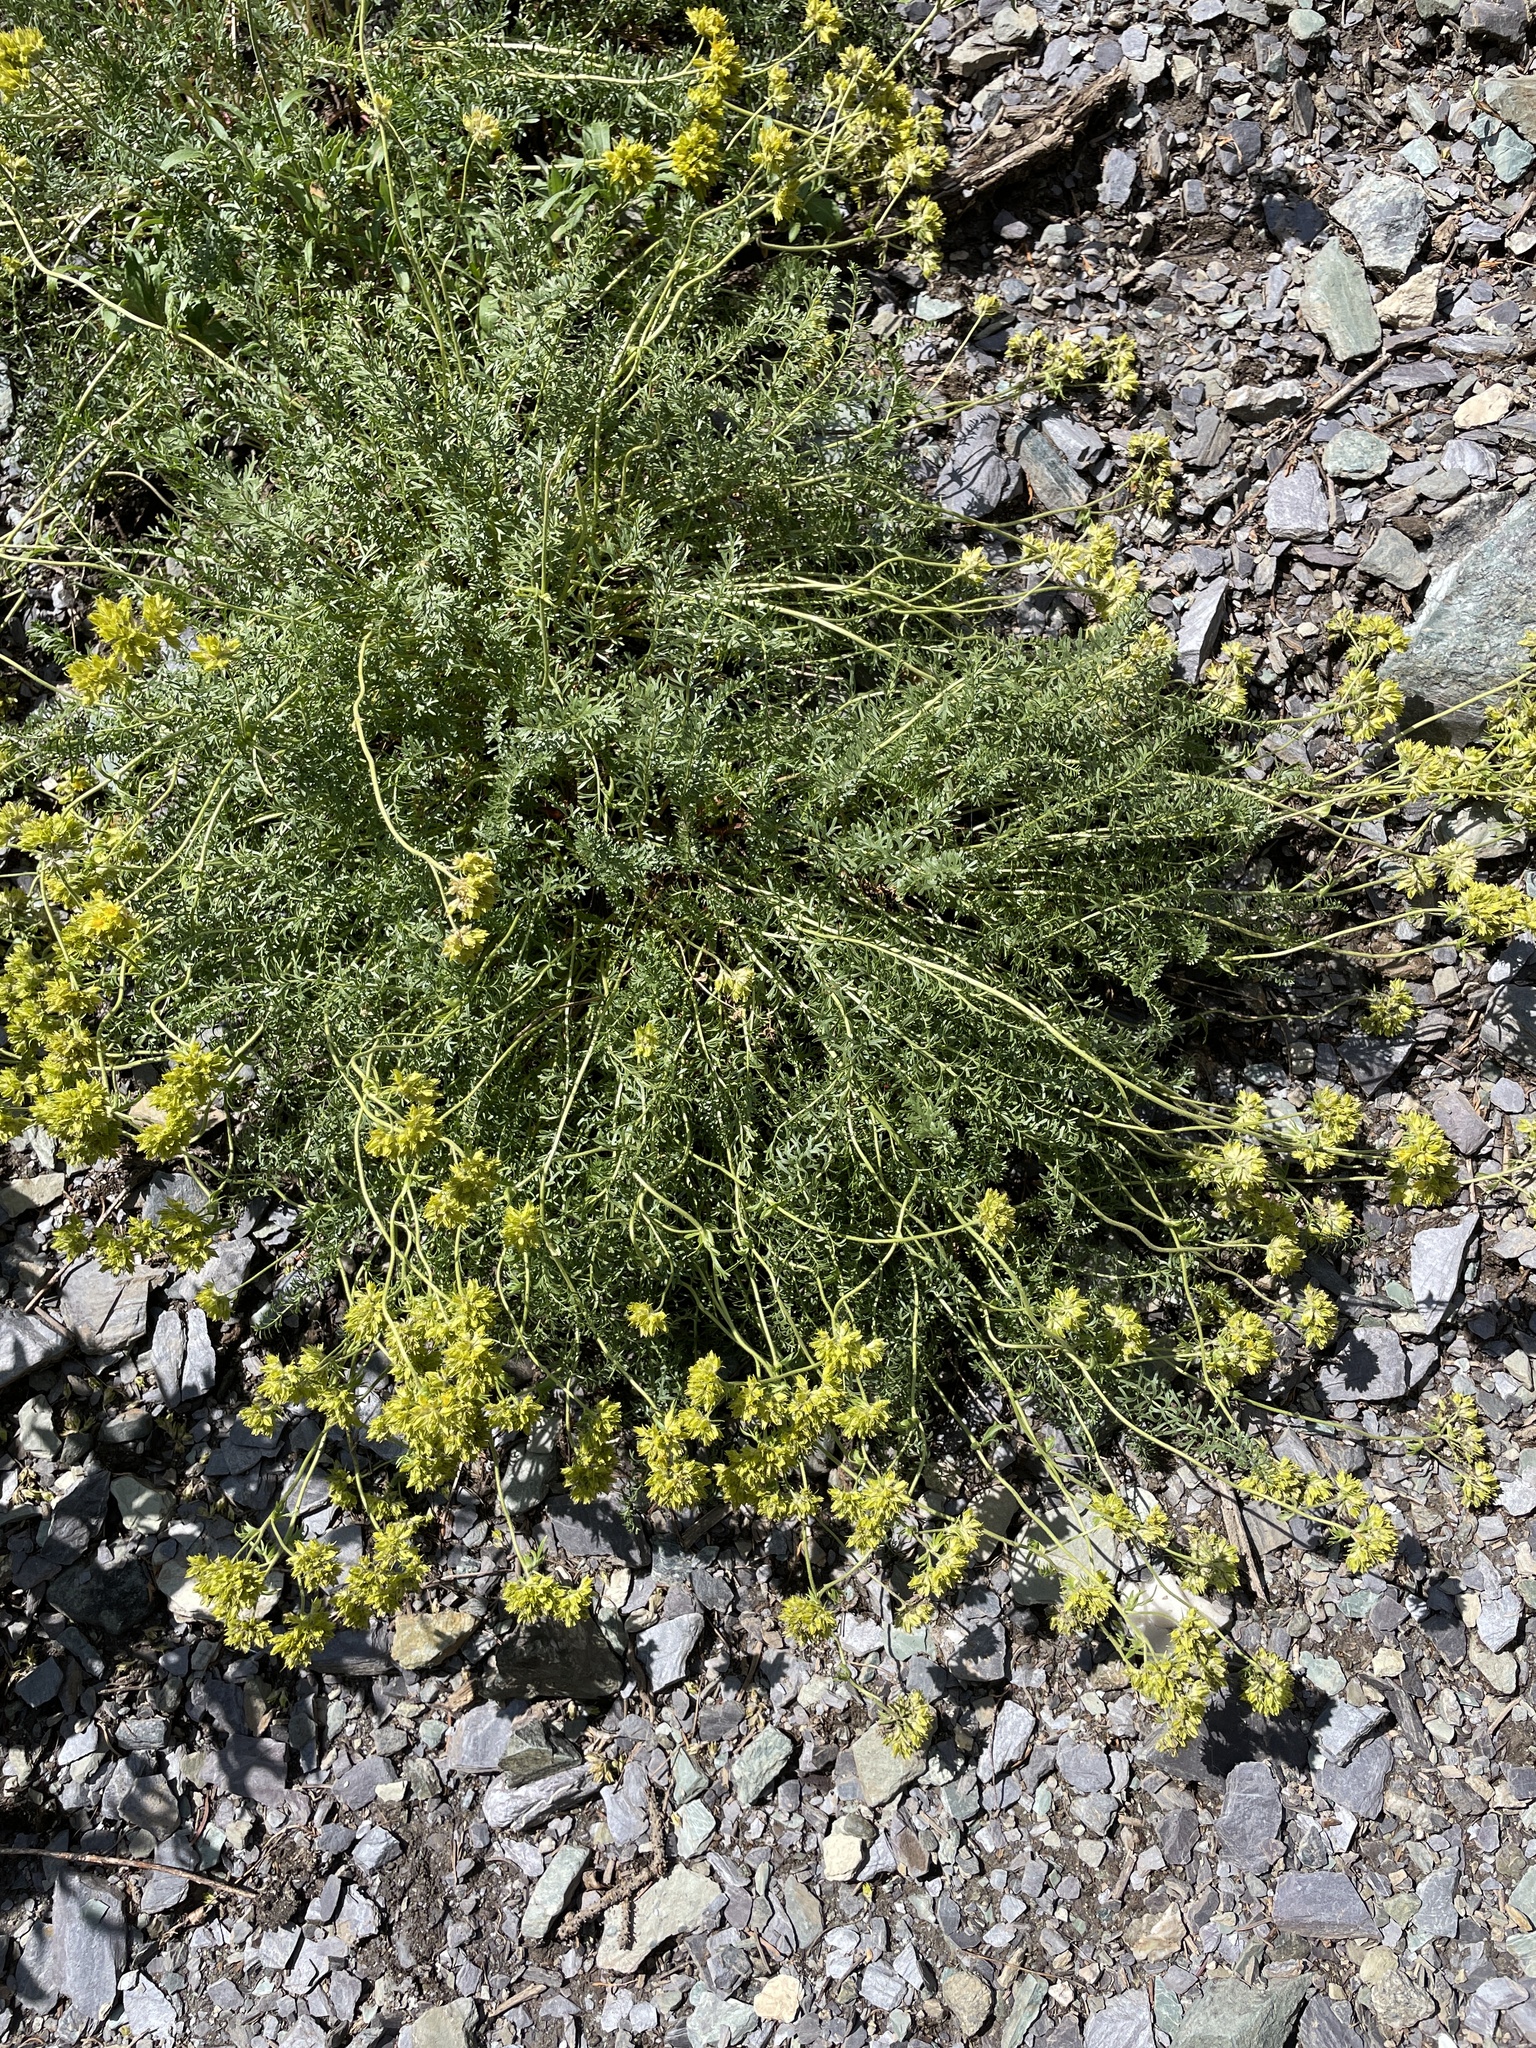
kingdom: Plantae
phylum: Tracheophyta
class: Magnoliopsida
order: Rosales
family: Rosaceae
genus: Potentilla
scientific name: Potentilla gordonii
